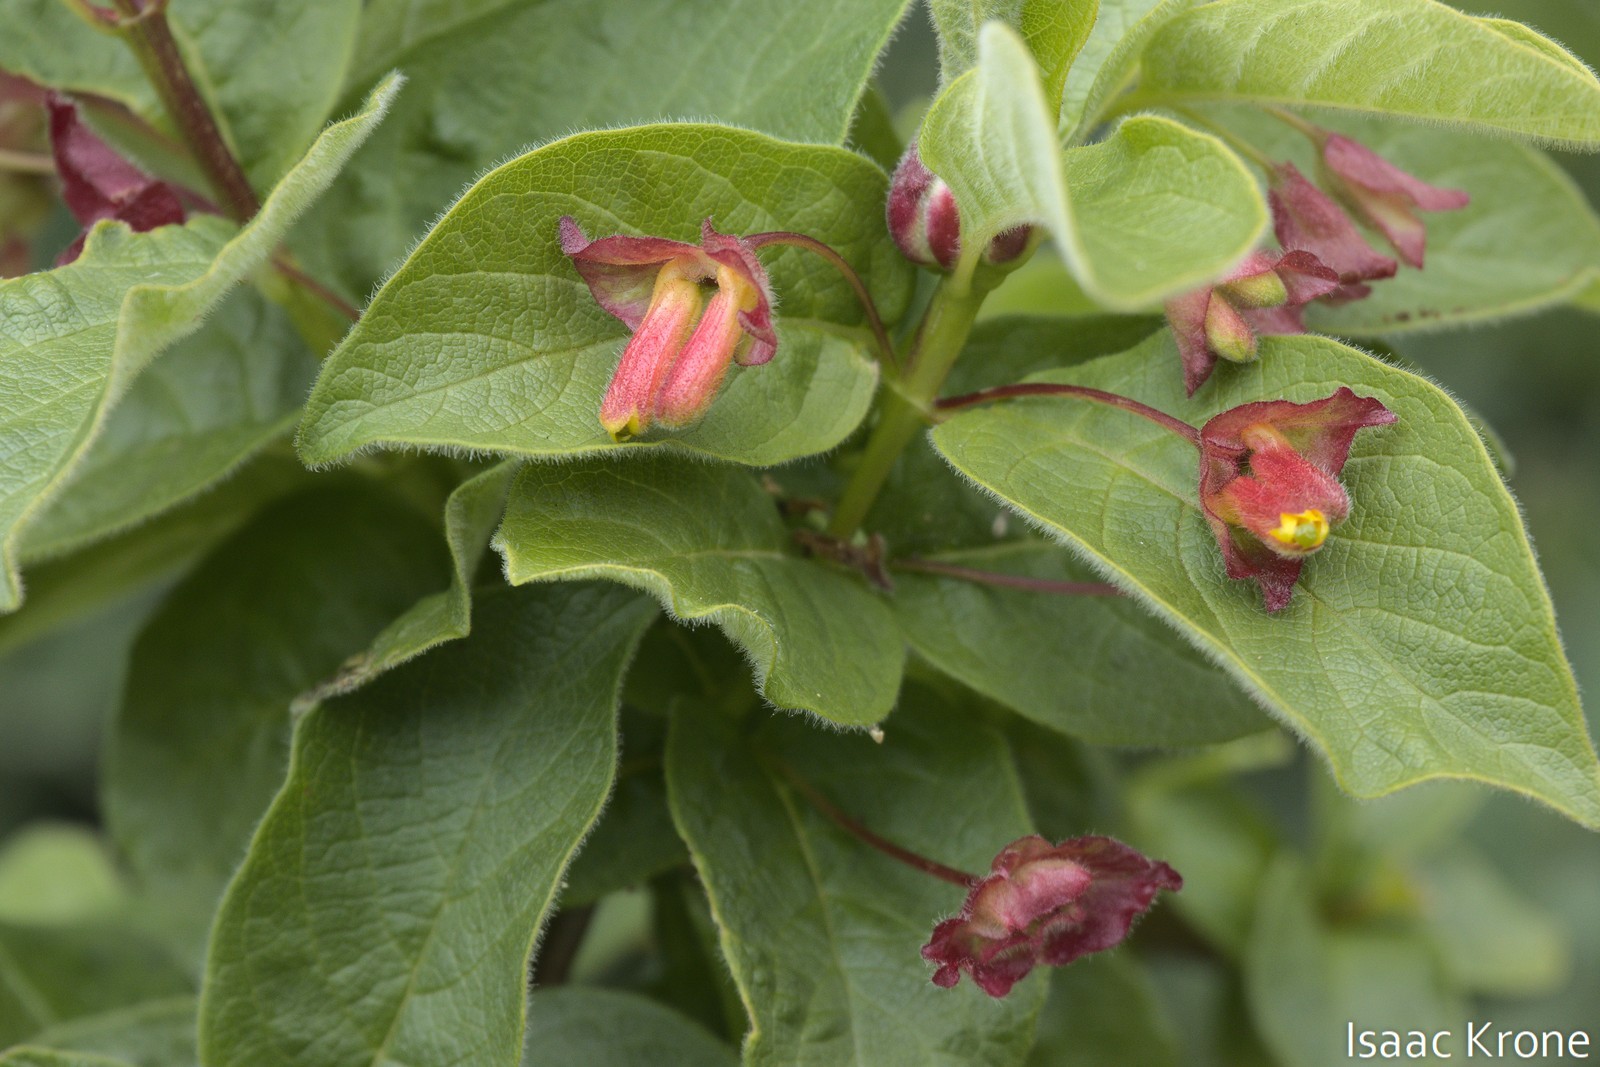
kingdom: Plantae
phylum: Tracheophyta
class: Magnoliopsida
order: Dipsacales
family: Caprifoliaceae
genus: Lonicera
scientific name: Lonicera involucrata
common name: Californian honeysuckle
